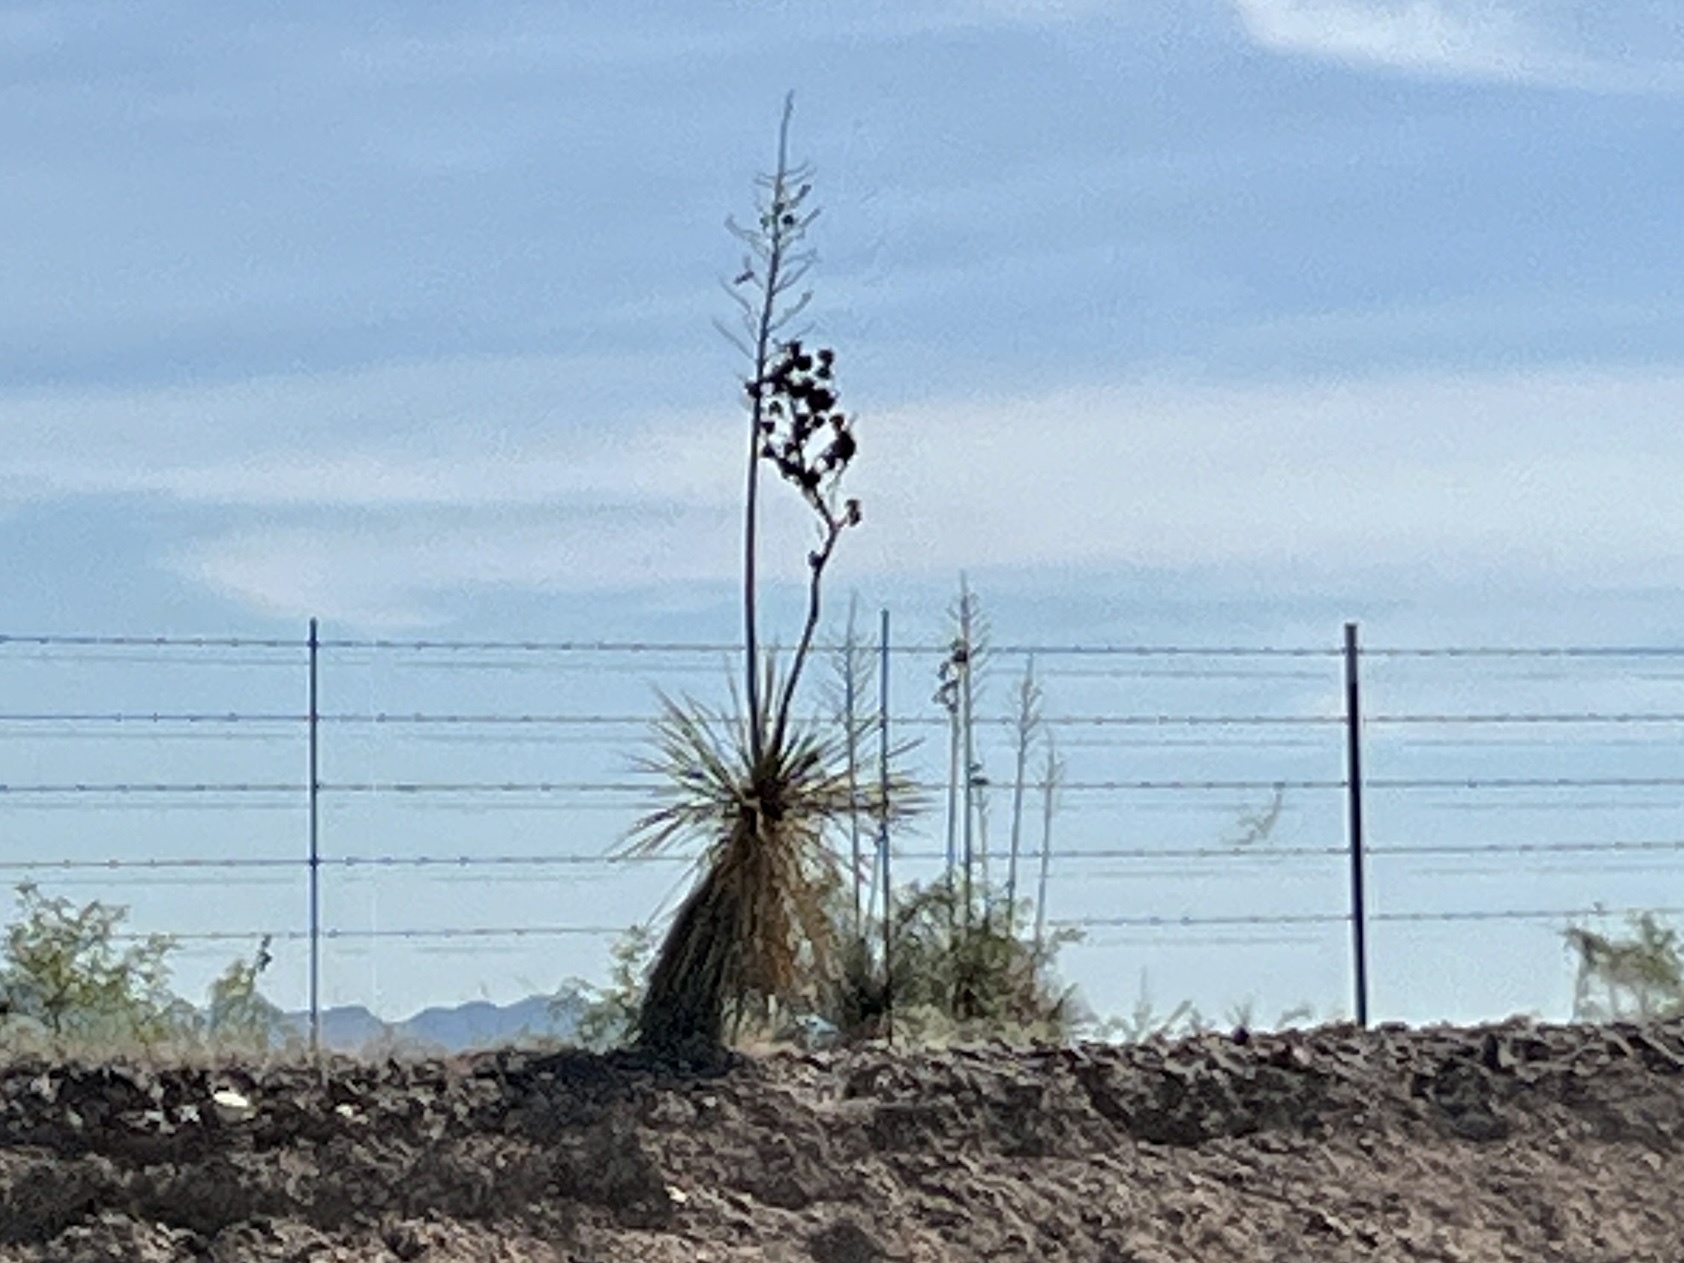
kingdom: Plantae
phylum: Tracheophyta
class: Liliopsida
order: Asparagales
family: Asparagaceae
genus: Yucca
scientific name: Yucca elata
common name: Palmella
